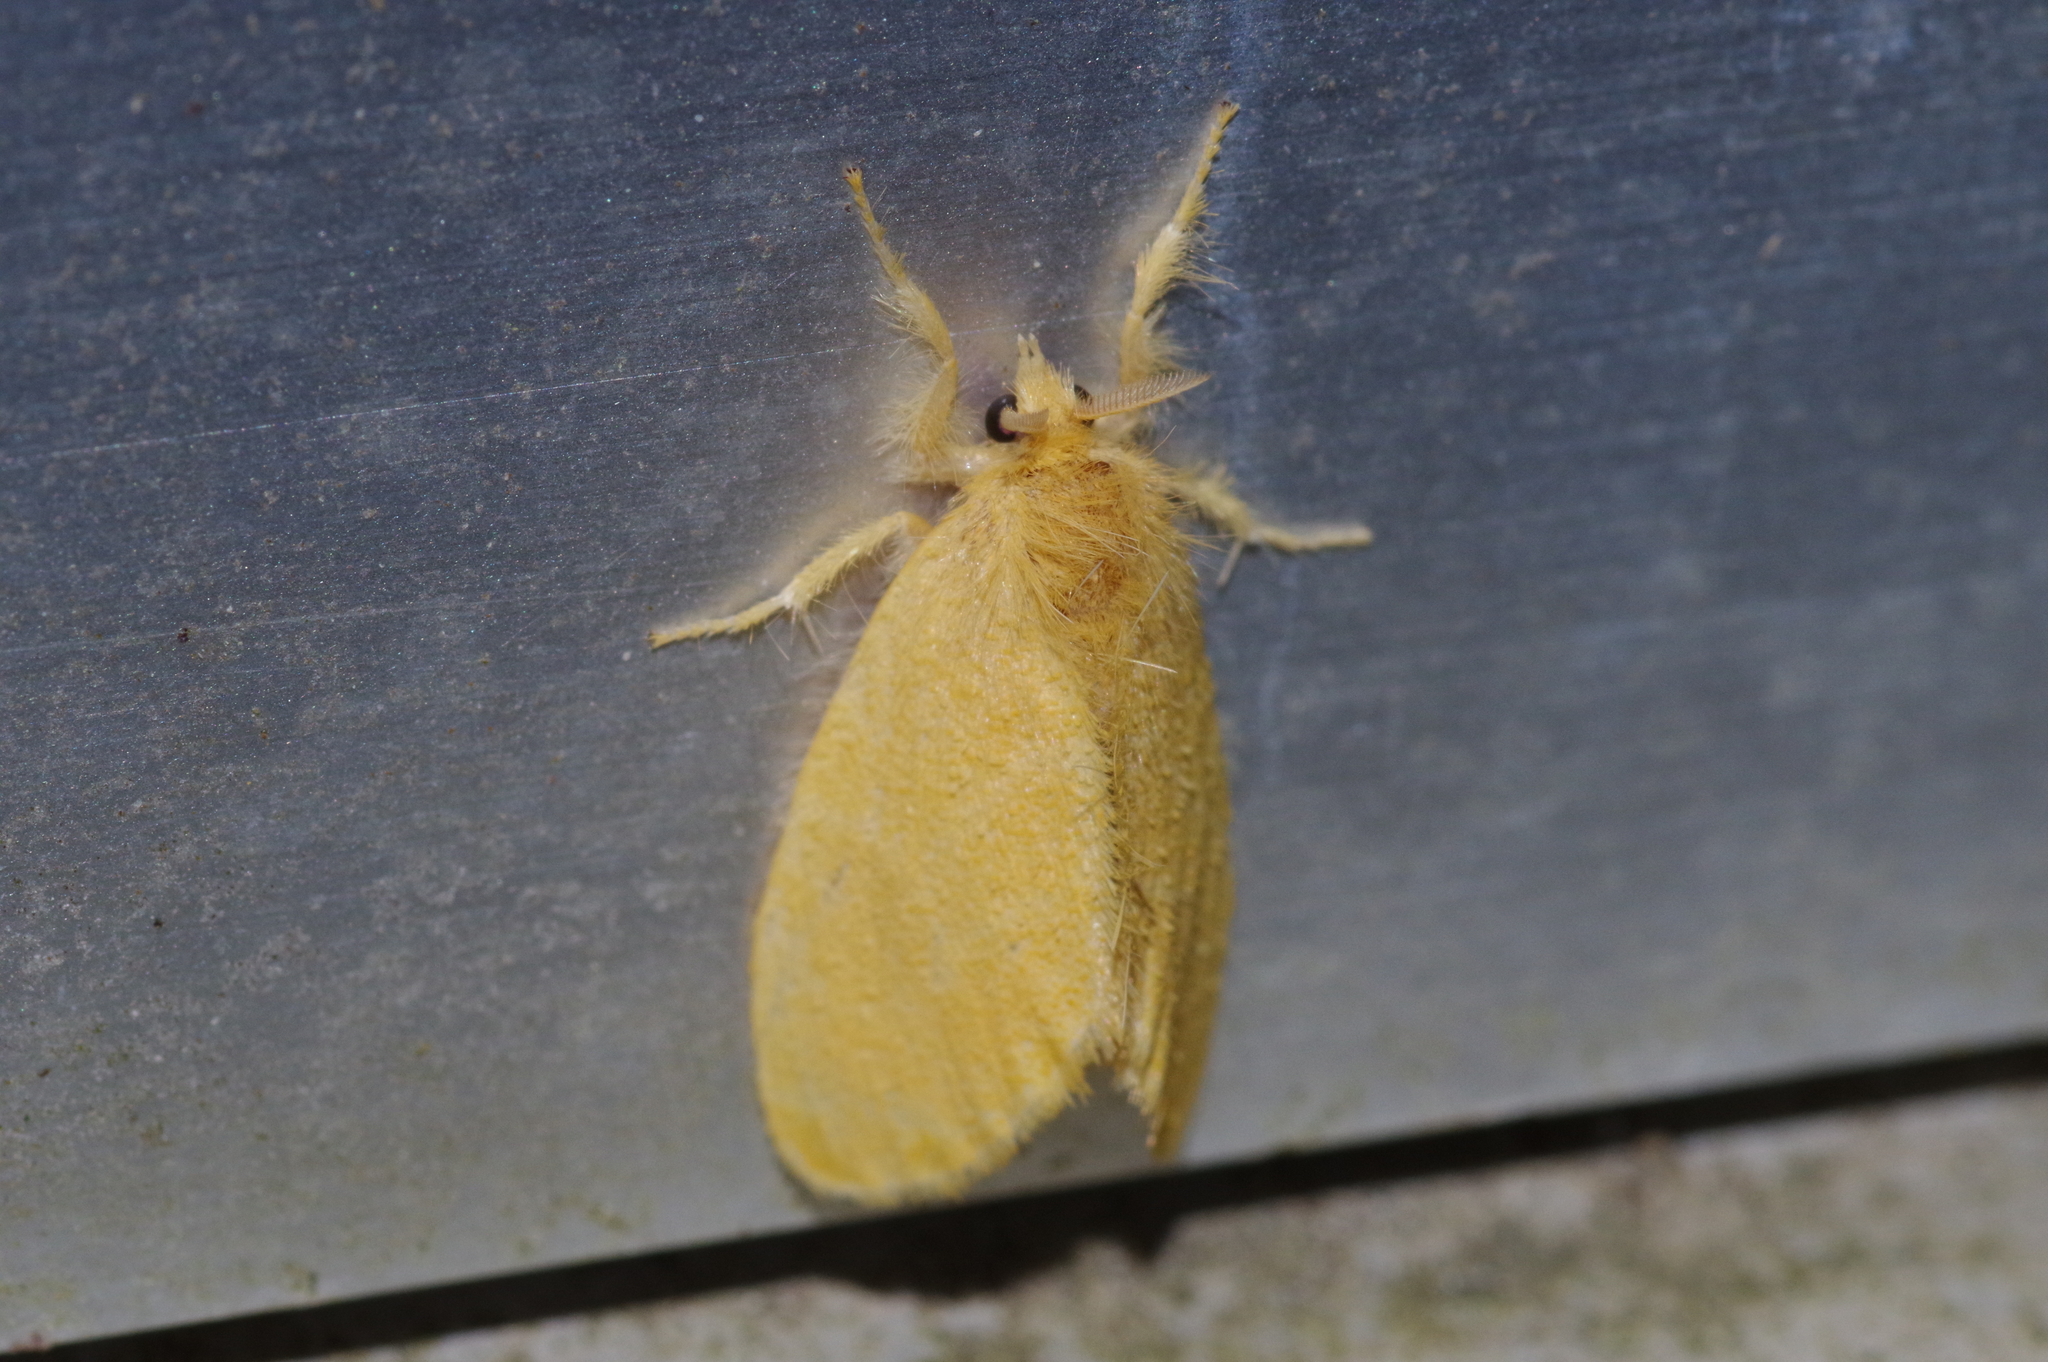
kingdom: Animalia
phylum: Arthropoda
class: Insecta
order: Lepidoptera
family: Erebidae
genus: Euproctis
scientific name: Euproctis taiwana
